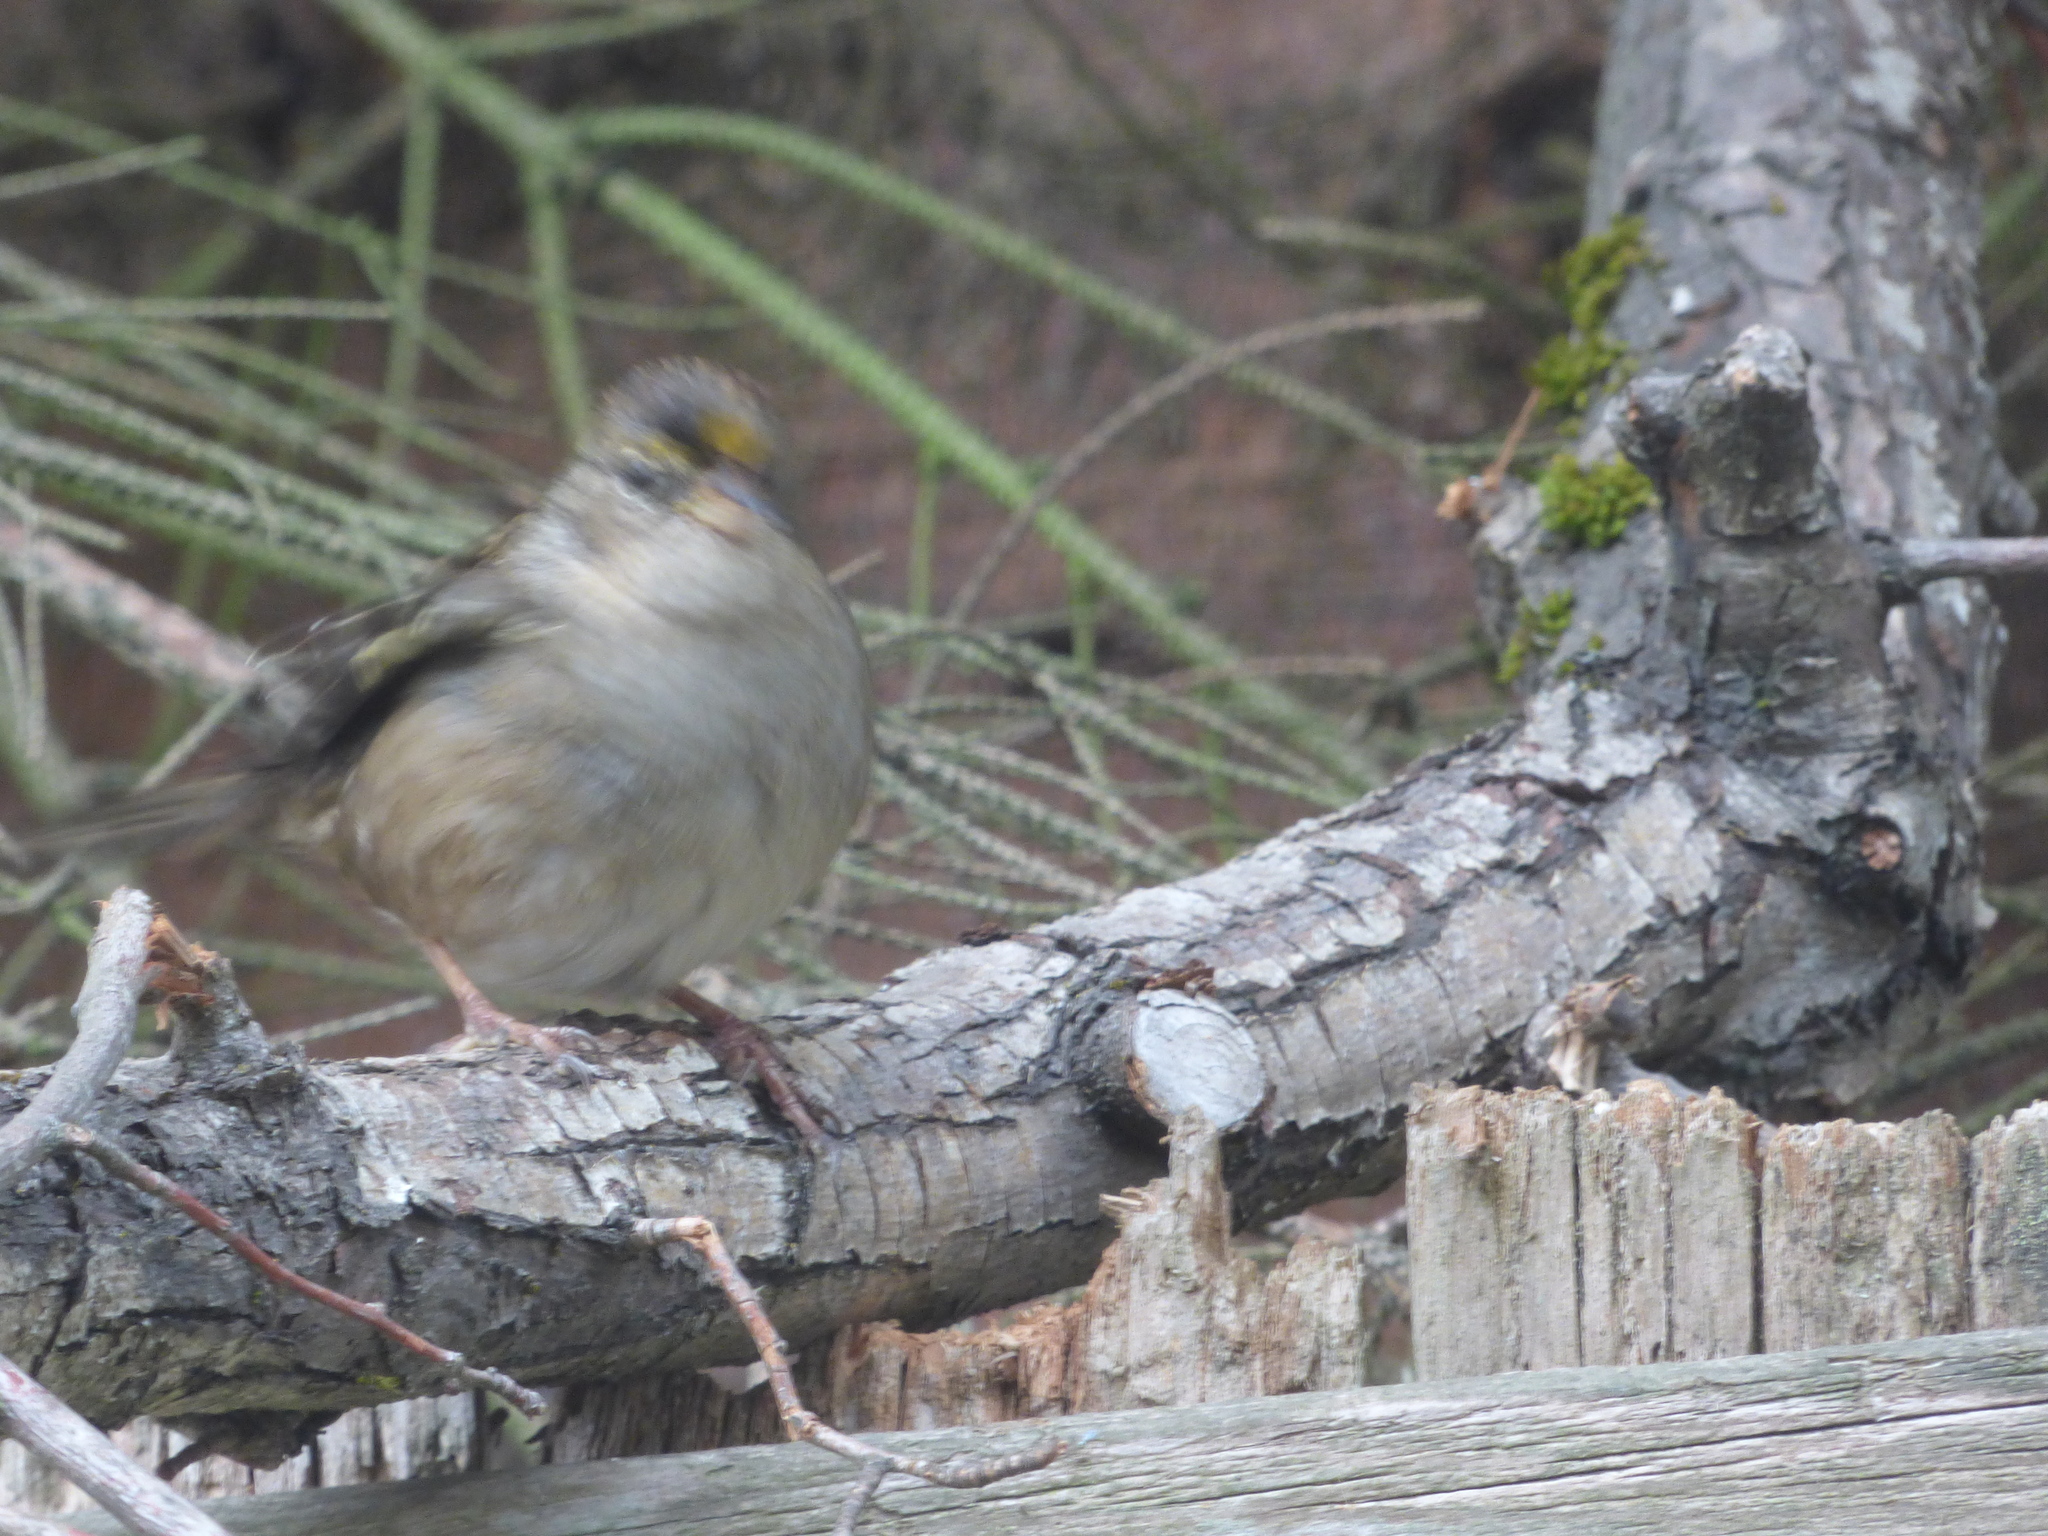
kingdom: Animalia
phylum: Chordata
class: Aves
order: Passeriformes
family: Passerellidae
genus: Zonotrichia
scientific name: Zonotrichia atricapilla
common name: Golden-crowned sparrow
